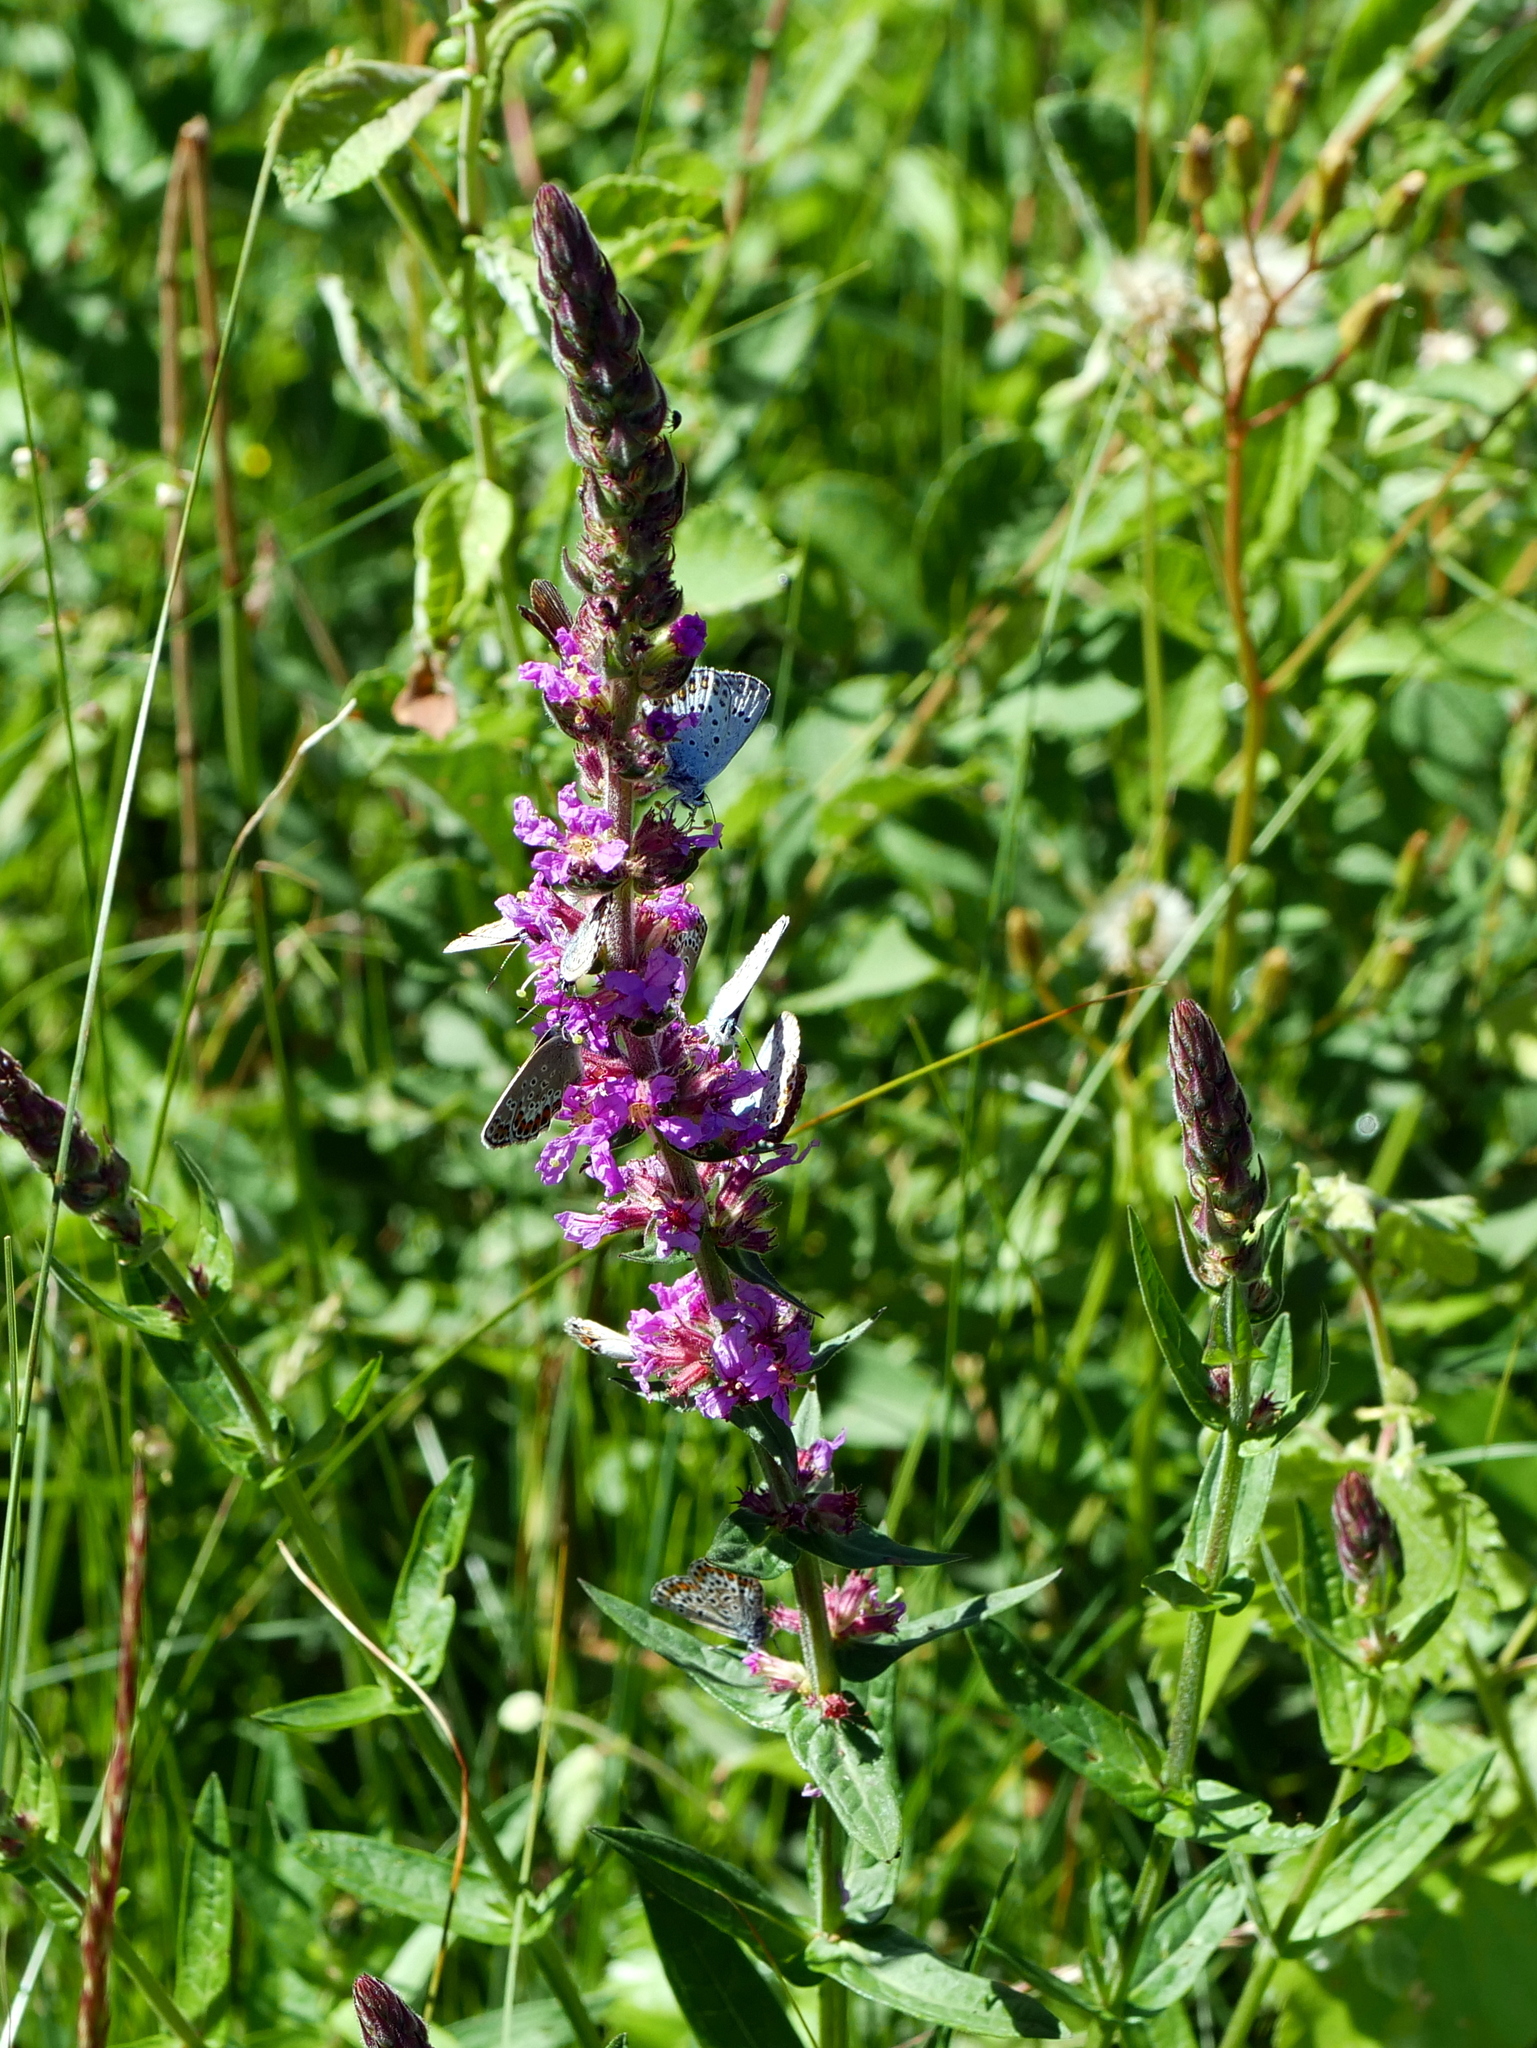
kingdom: Animalia
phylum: Arthropoda
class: Insecta
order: Lepidoptera
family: Lycaenidae
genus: Plebejus
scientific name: Plebejus argus
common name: Silver-studded blue
